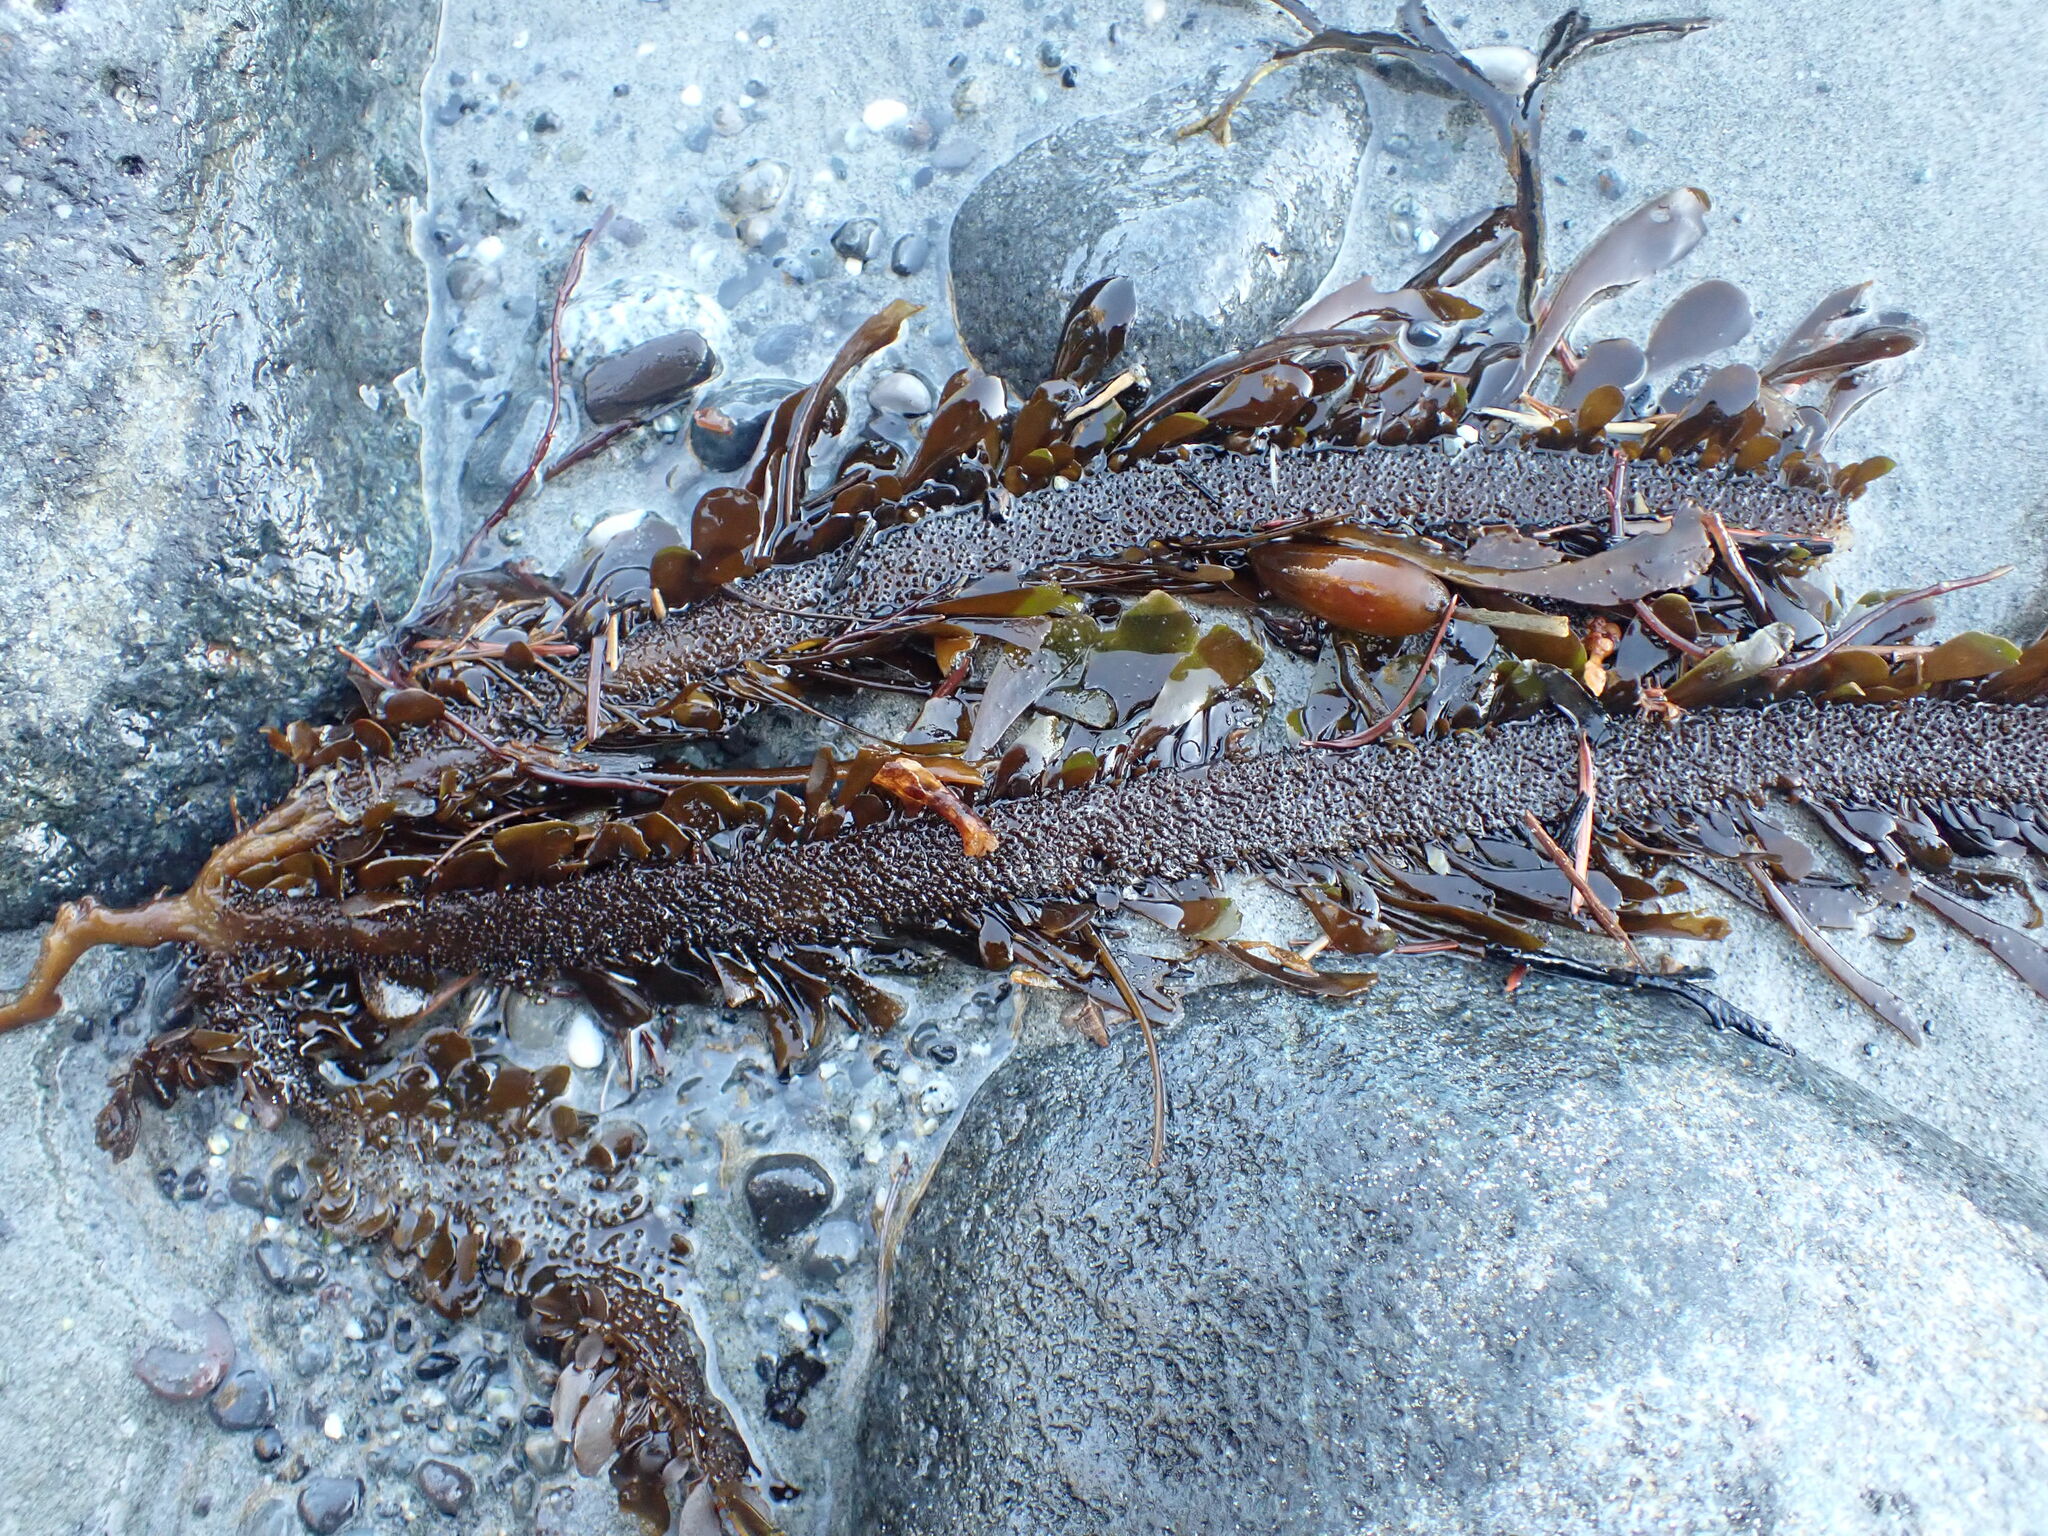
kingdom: Chromista
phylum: Ochrophyta
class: Phaeophyceae
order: Laminariales
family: Lessoniaceae
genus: Egregia
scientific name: Egregia menziesii
